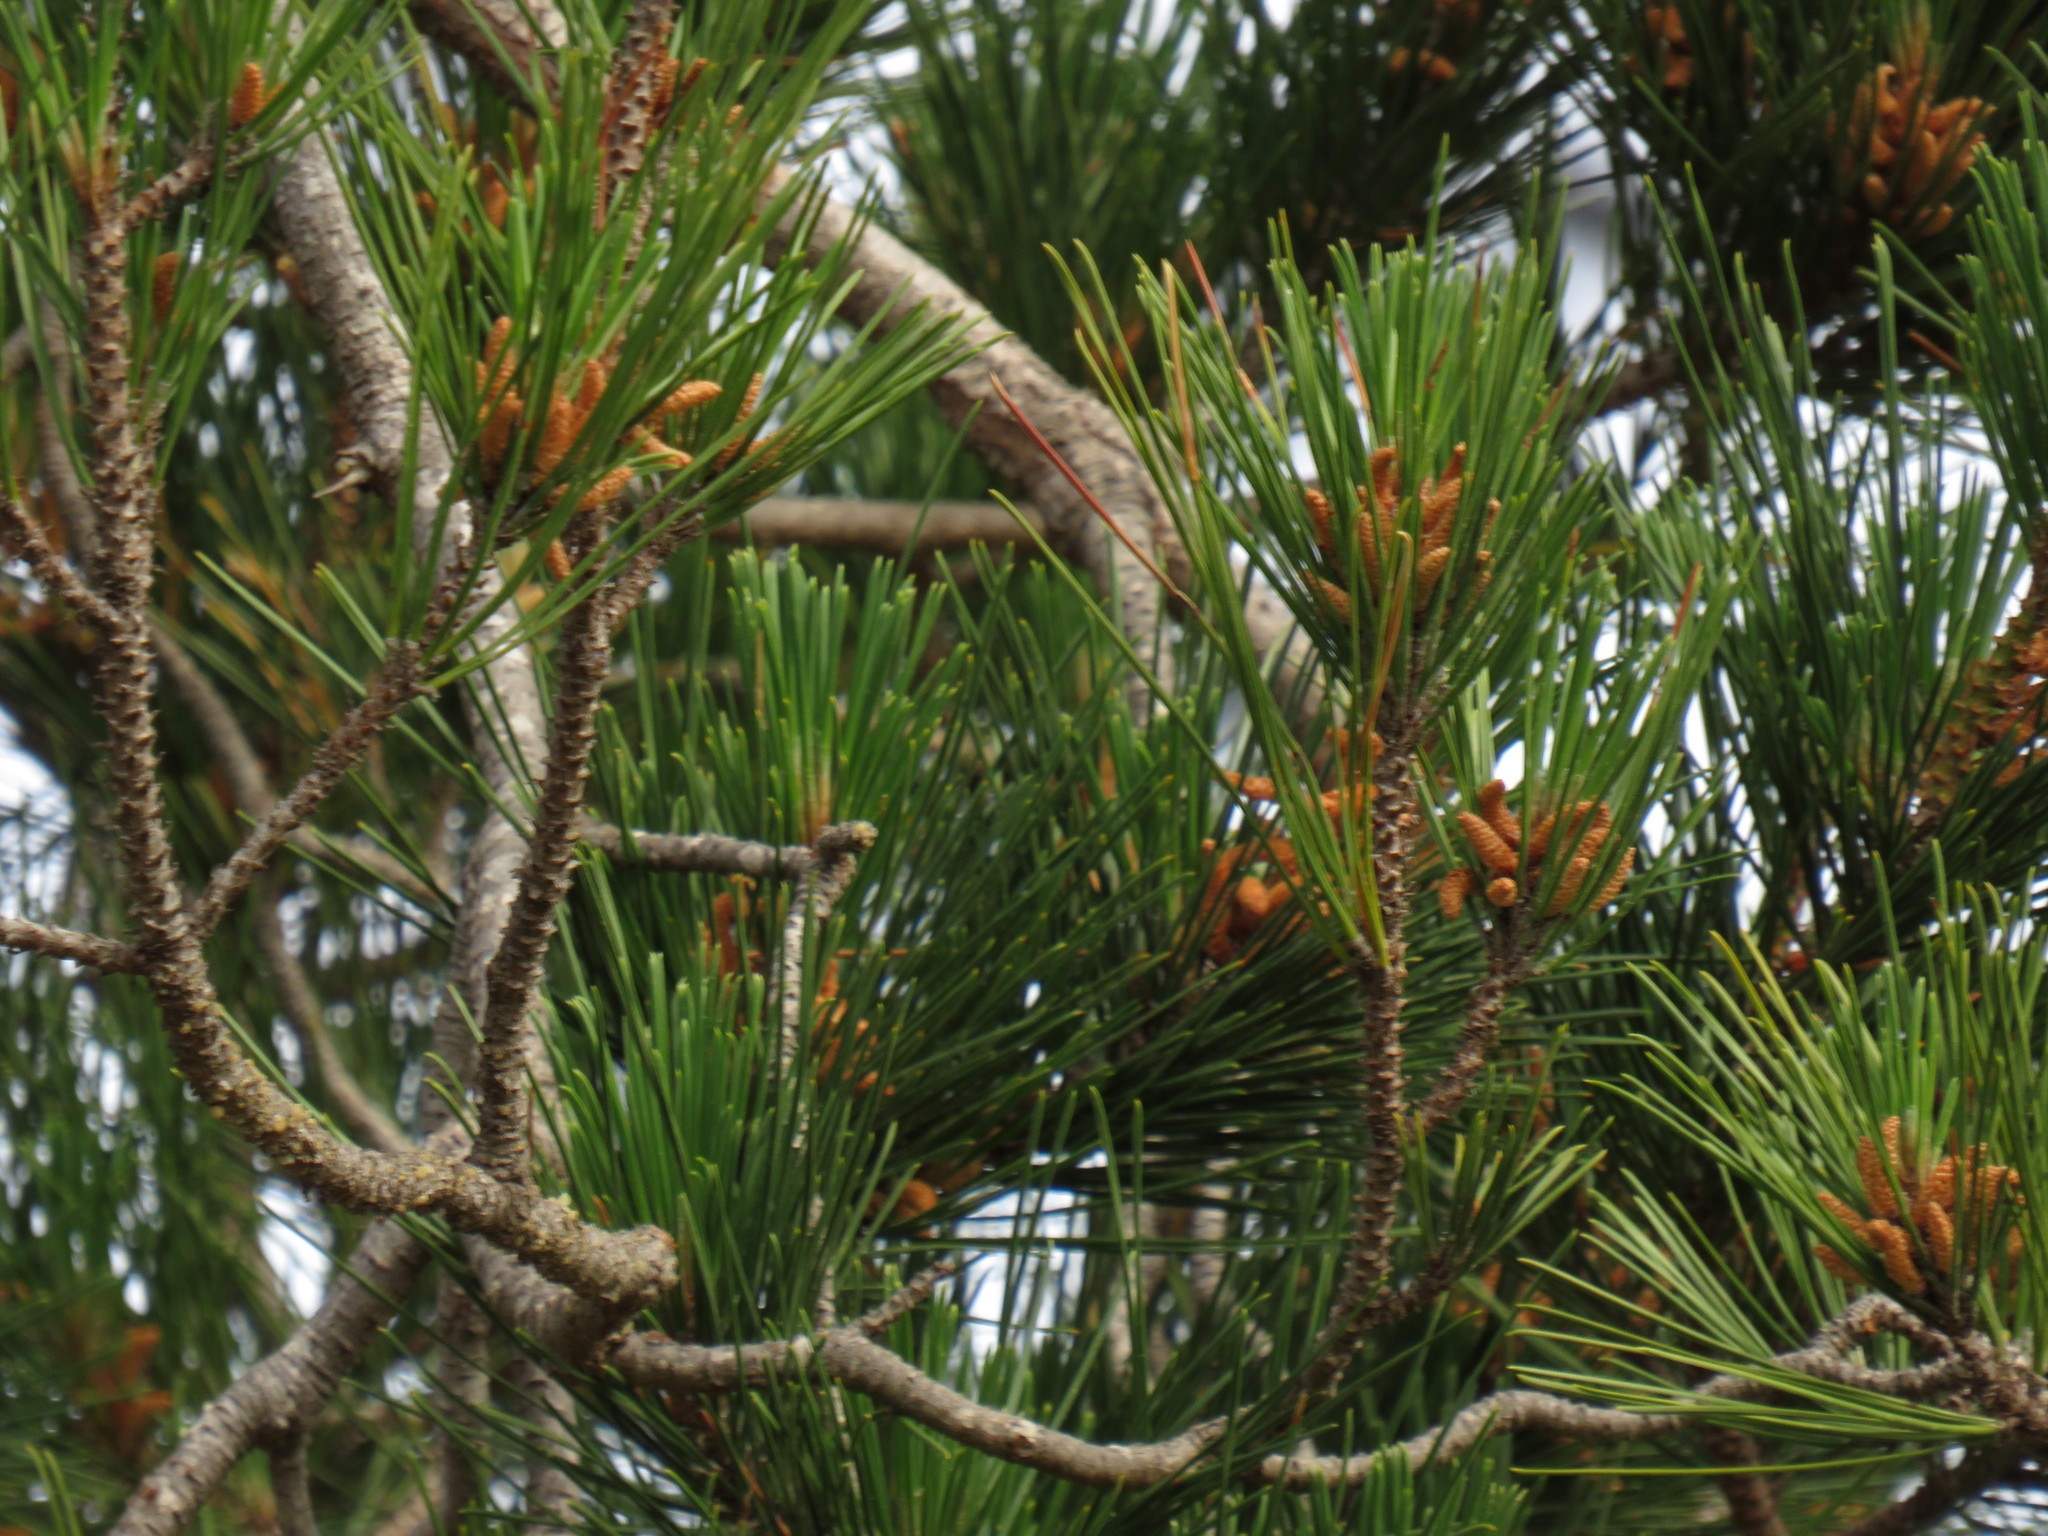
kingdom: Plantae
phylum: Tracheophyta
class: Pinopsida
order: Pinales
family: Pinaceae
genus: Pinus
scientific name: Pinus radiata
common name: Monterey pine
